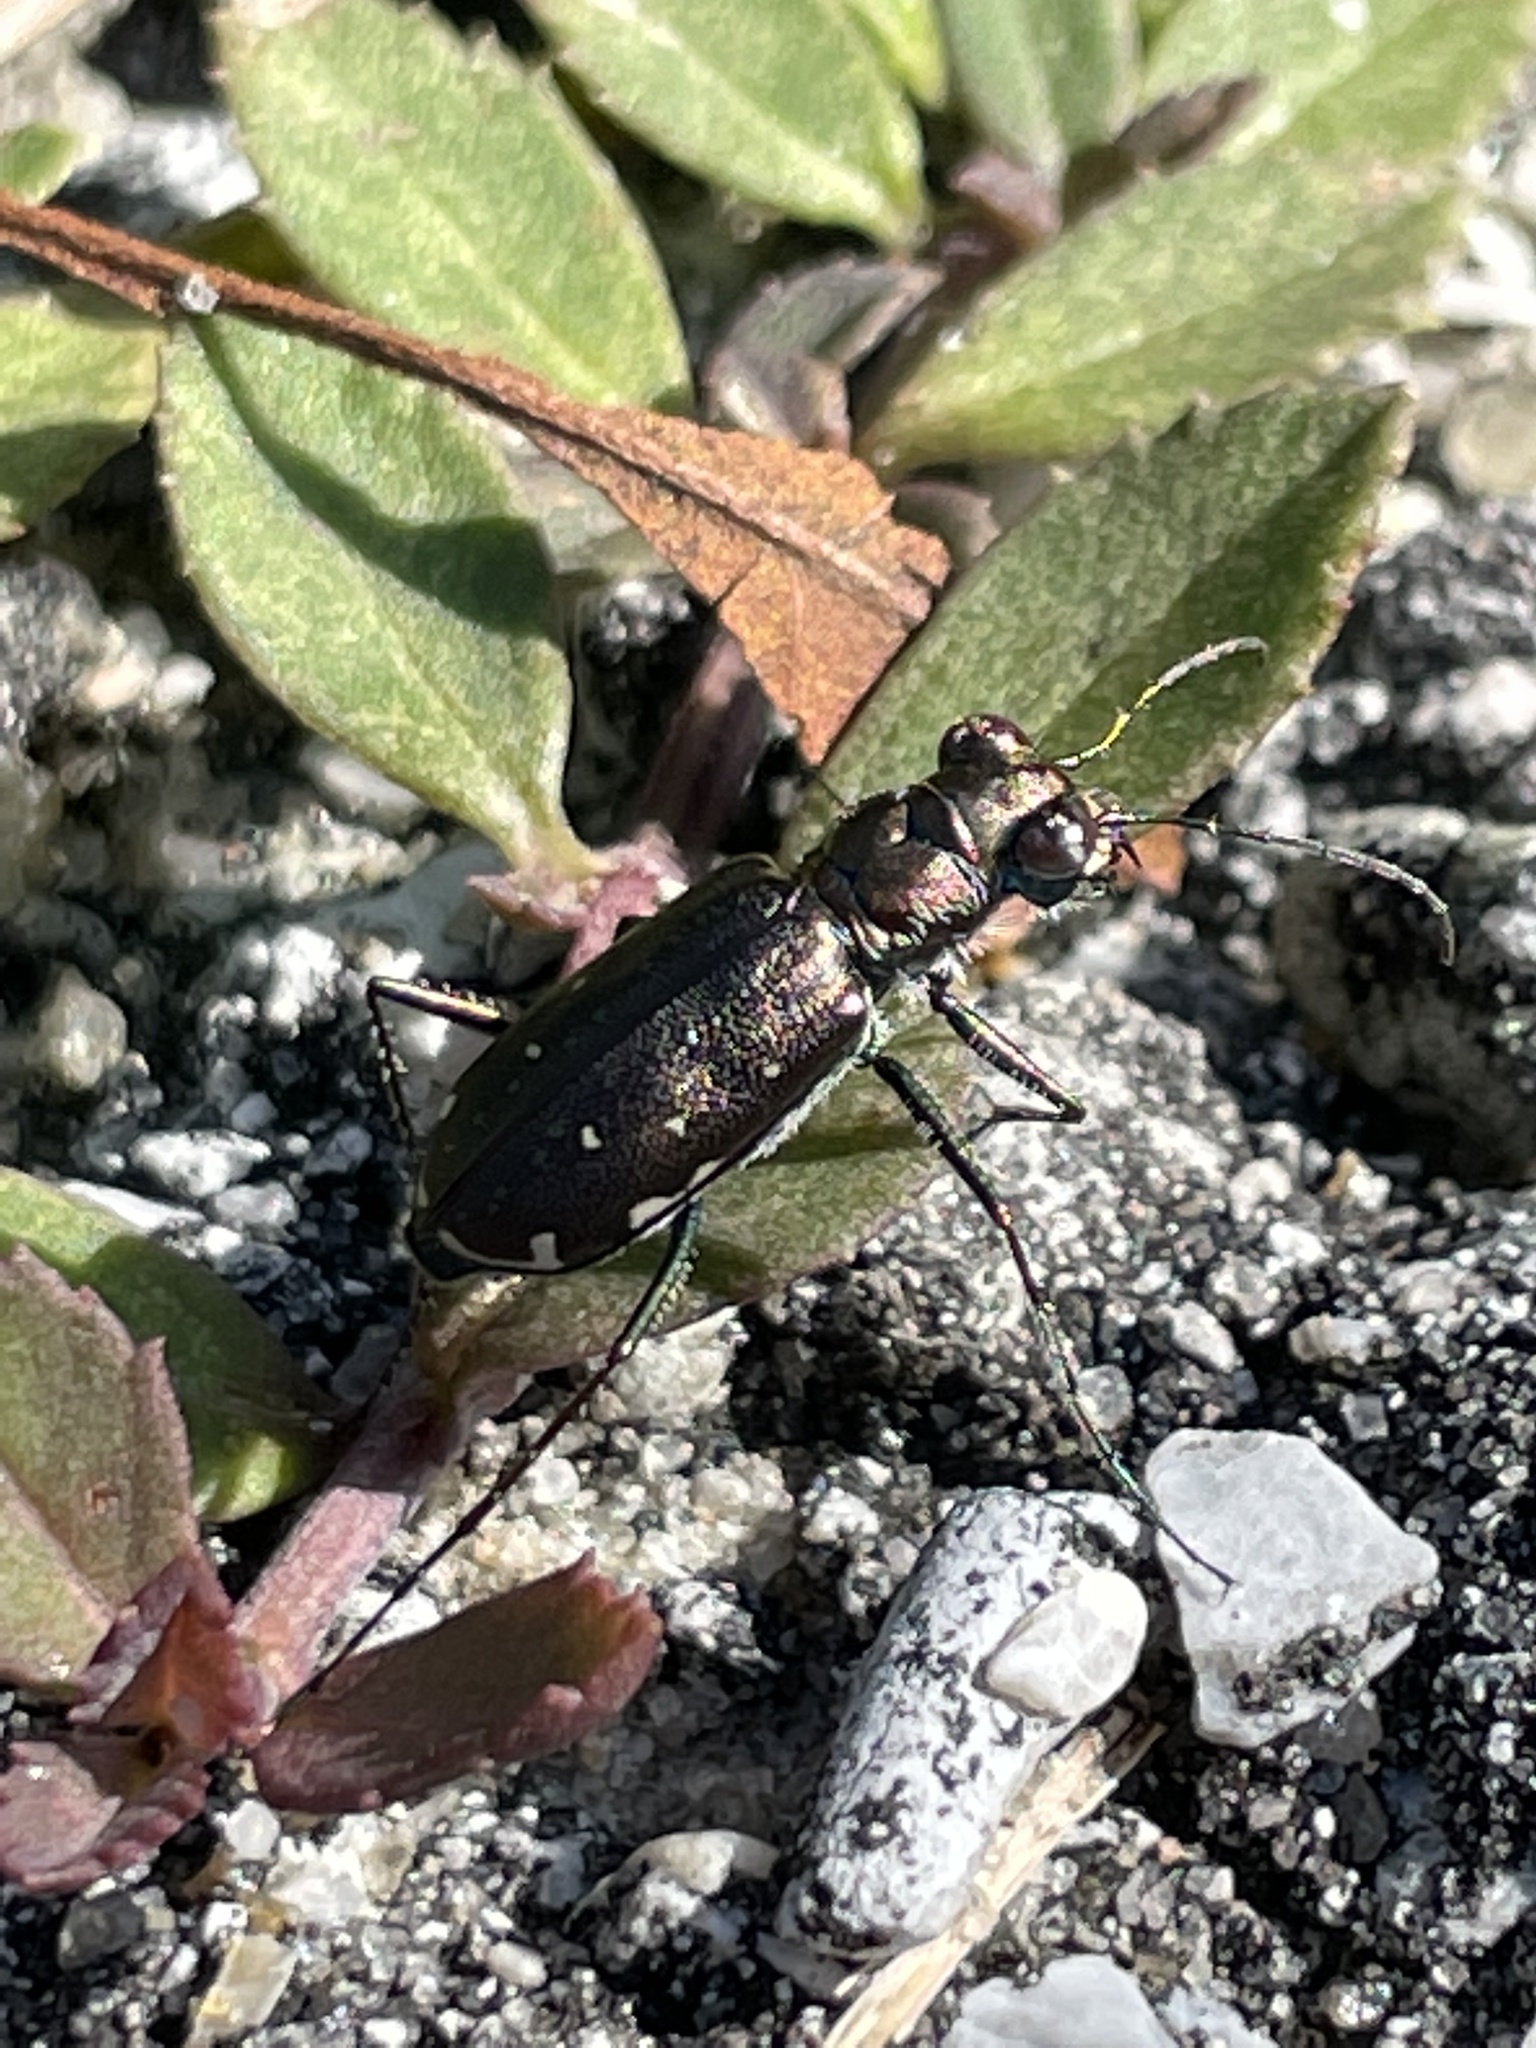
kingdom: Animalia
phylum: Arthropoda
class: Insecta
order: Coleoptera
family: Carabidae
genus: Cicindela
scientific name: Cicindela punctulata
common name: Punctured tiger beetle
